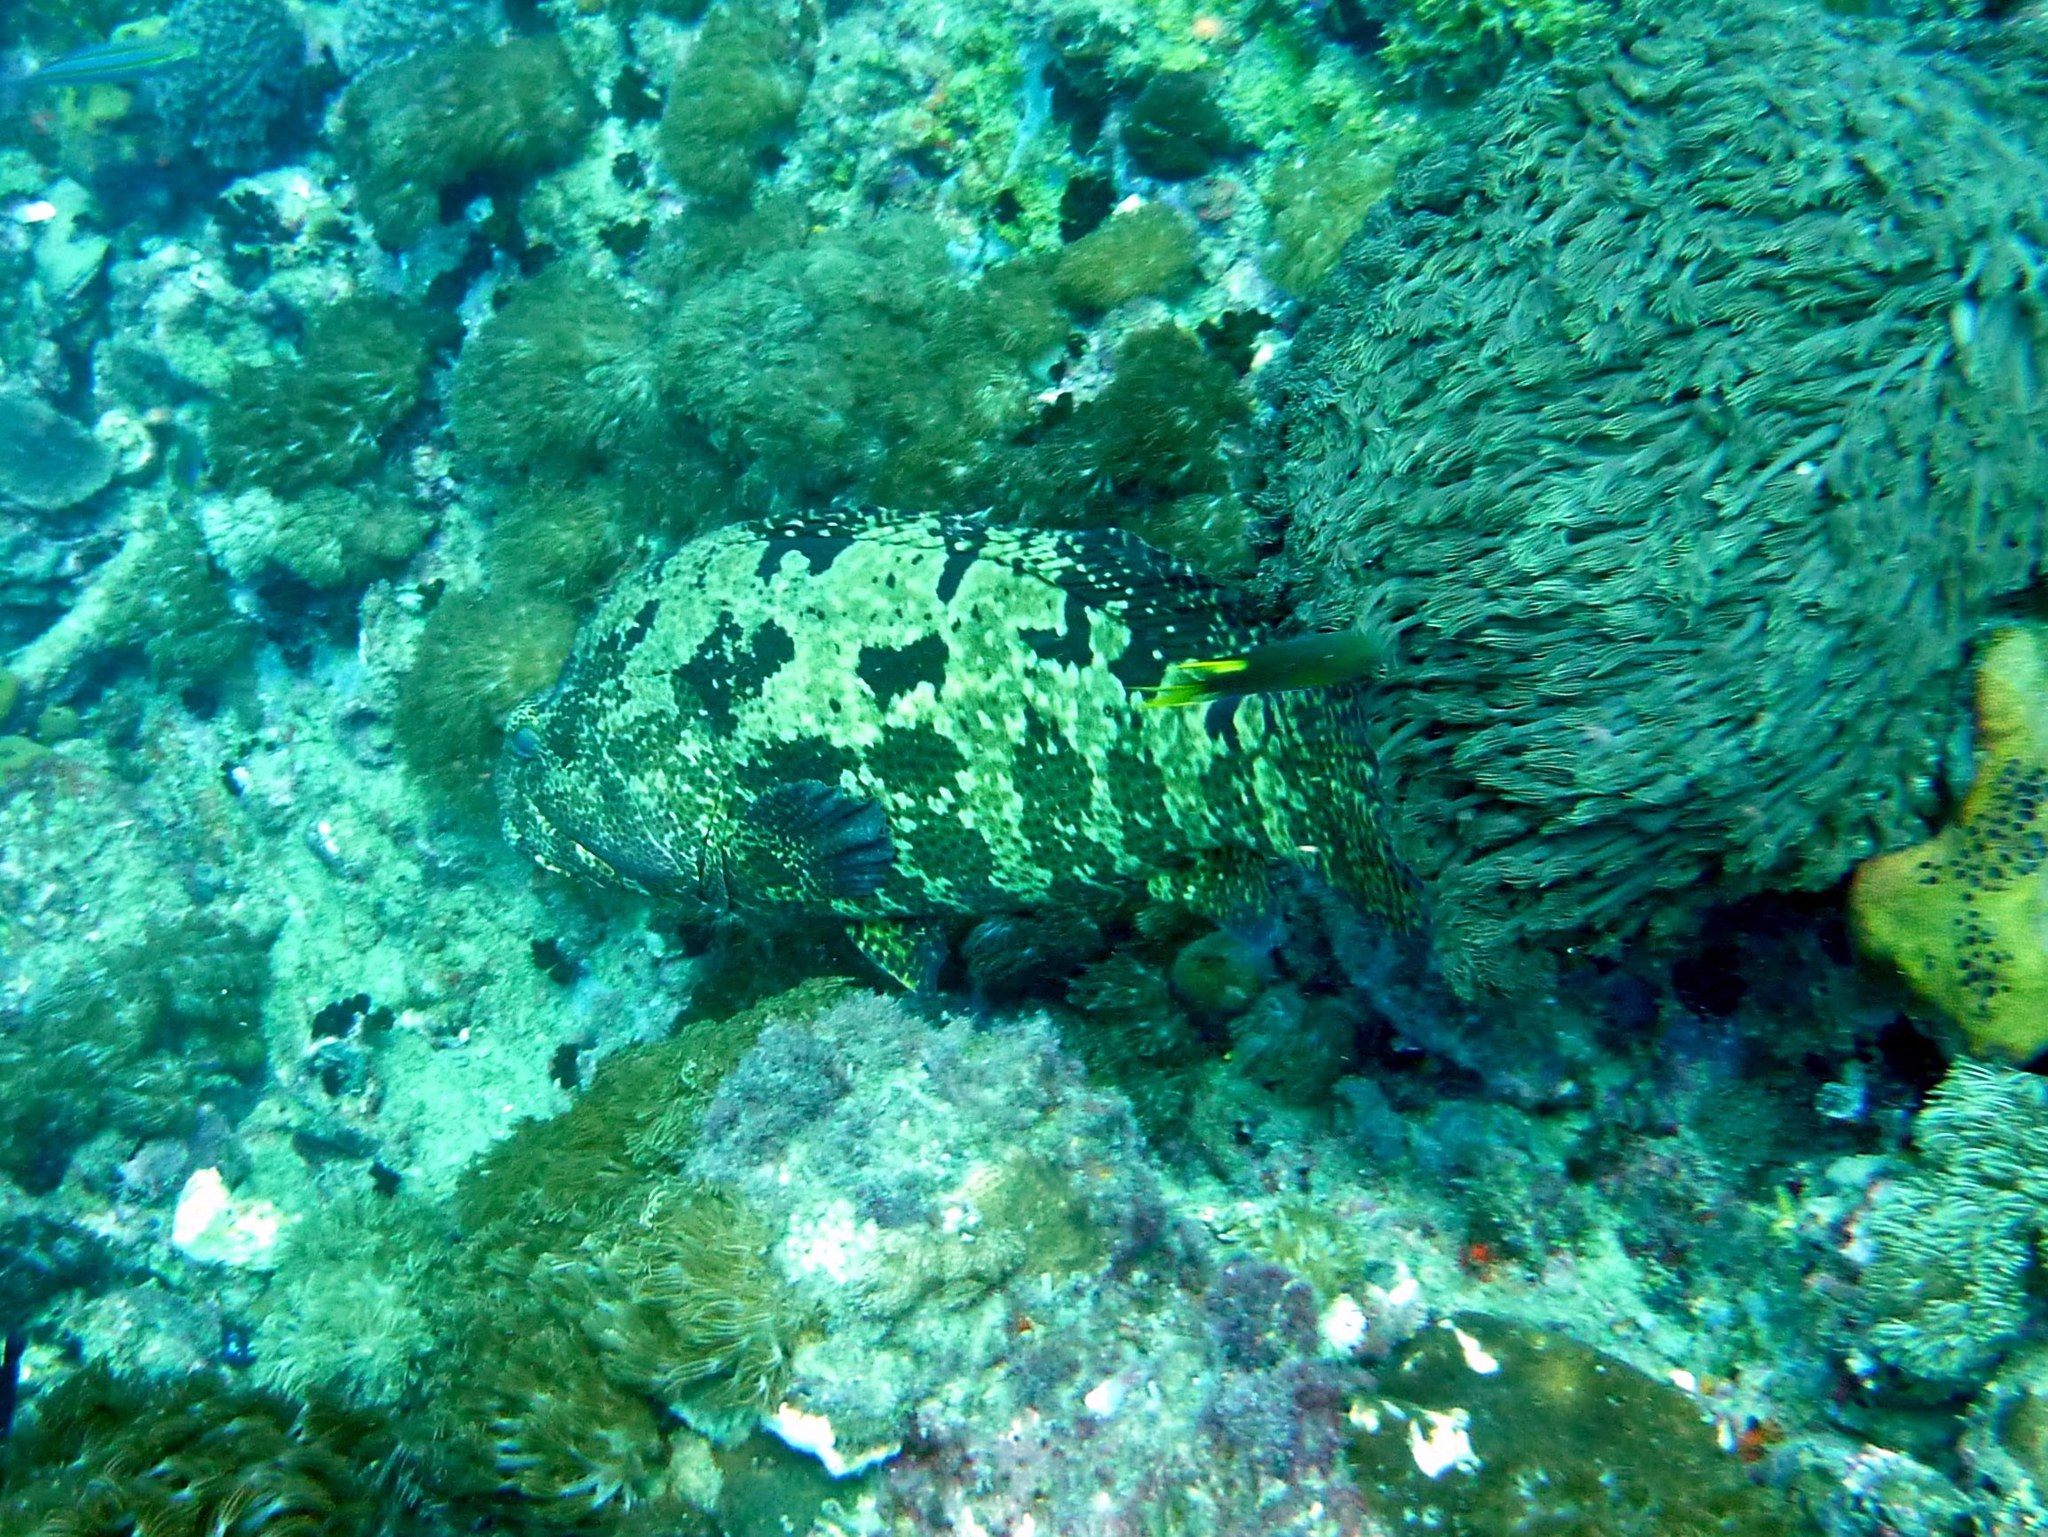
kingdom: Animalia
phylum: Chordata
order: Perciformes
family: Serranidae
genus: Epinephelus
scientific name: Epinephelus fuscoguttatus
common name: Brown-marbled grouper
